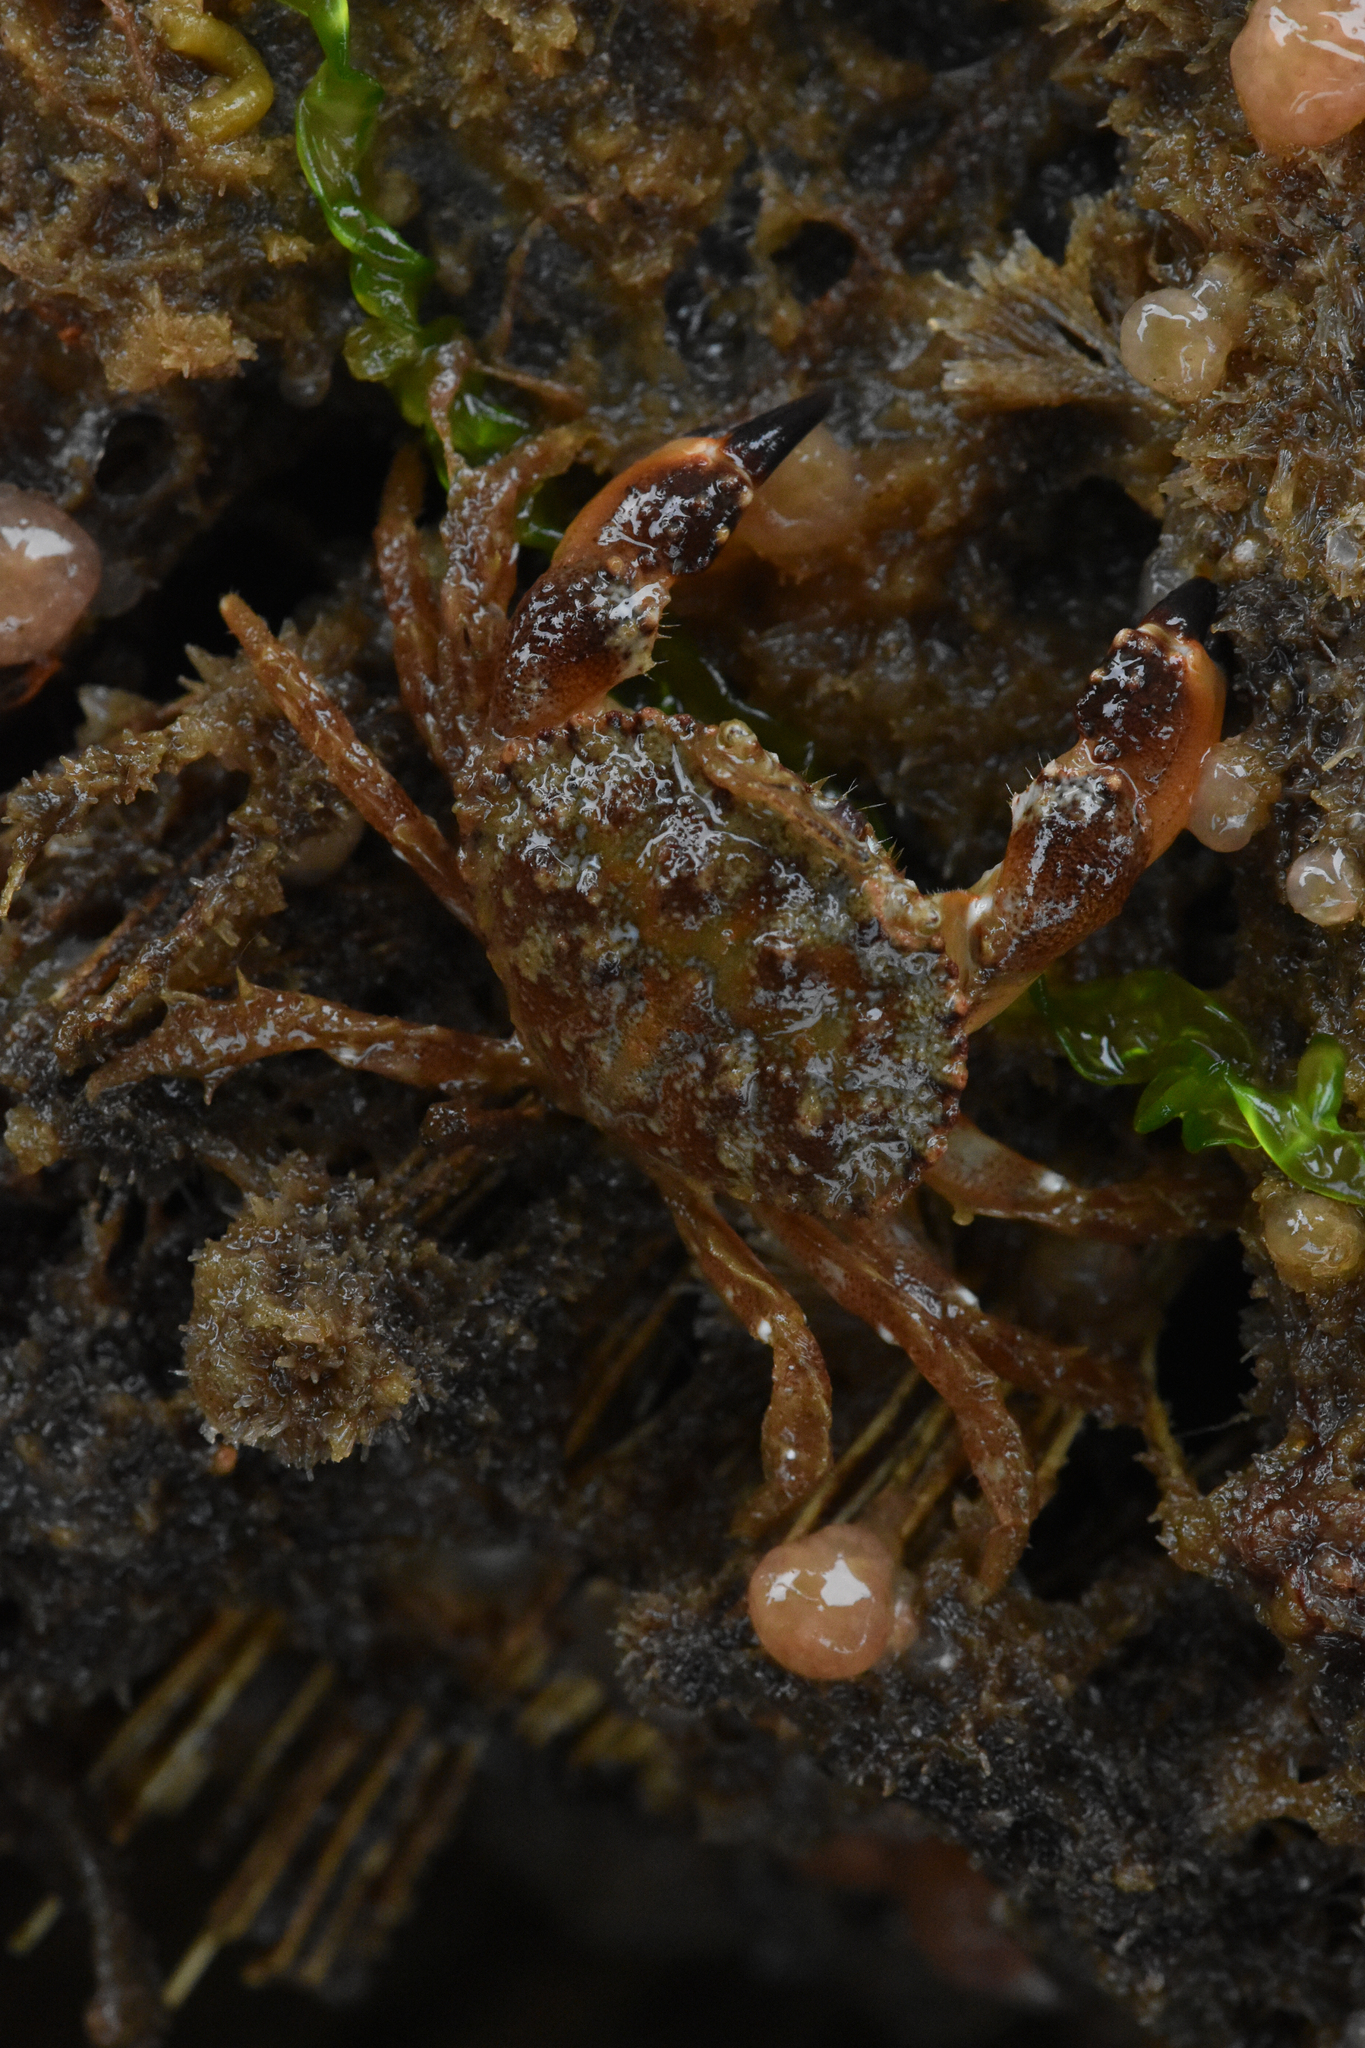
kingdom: Animalia
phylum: Arthropoda
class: Malacostraca
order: Decapoda
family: Cancridae
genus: Glebocarcinus
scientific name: Glebocarcinus oregonensis
